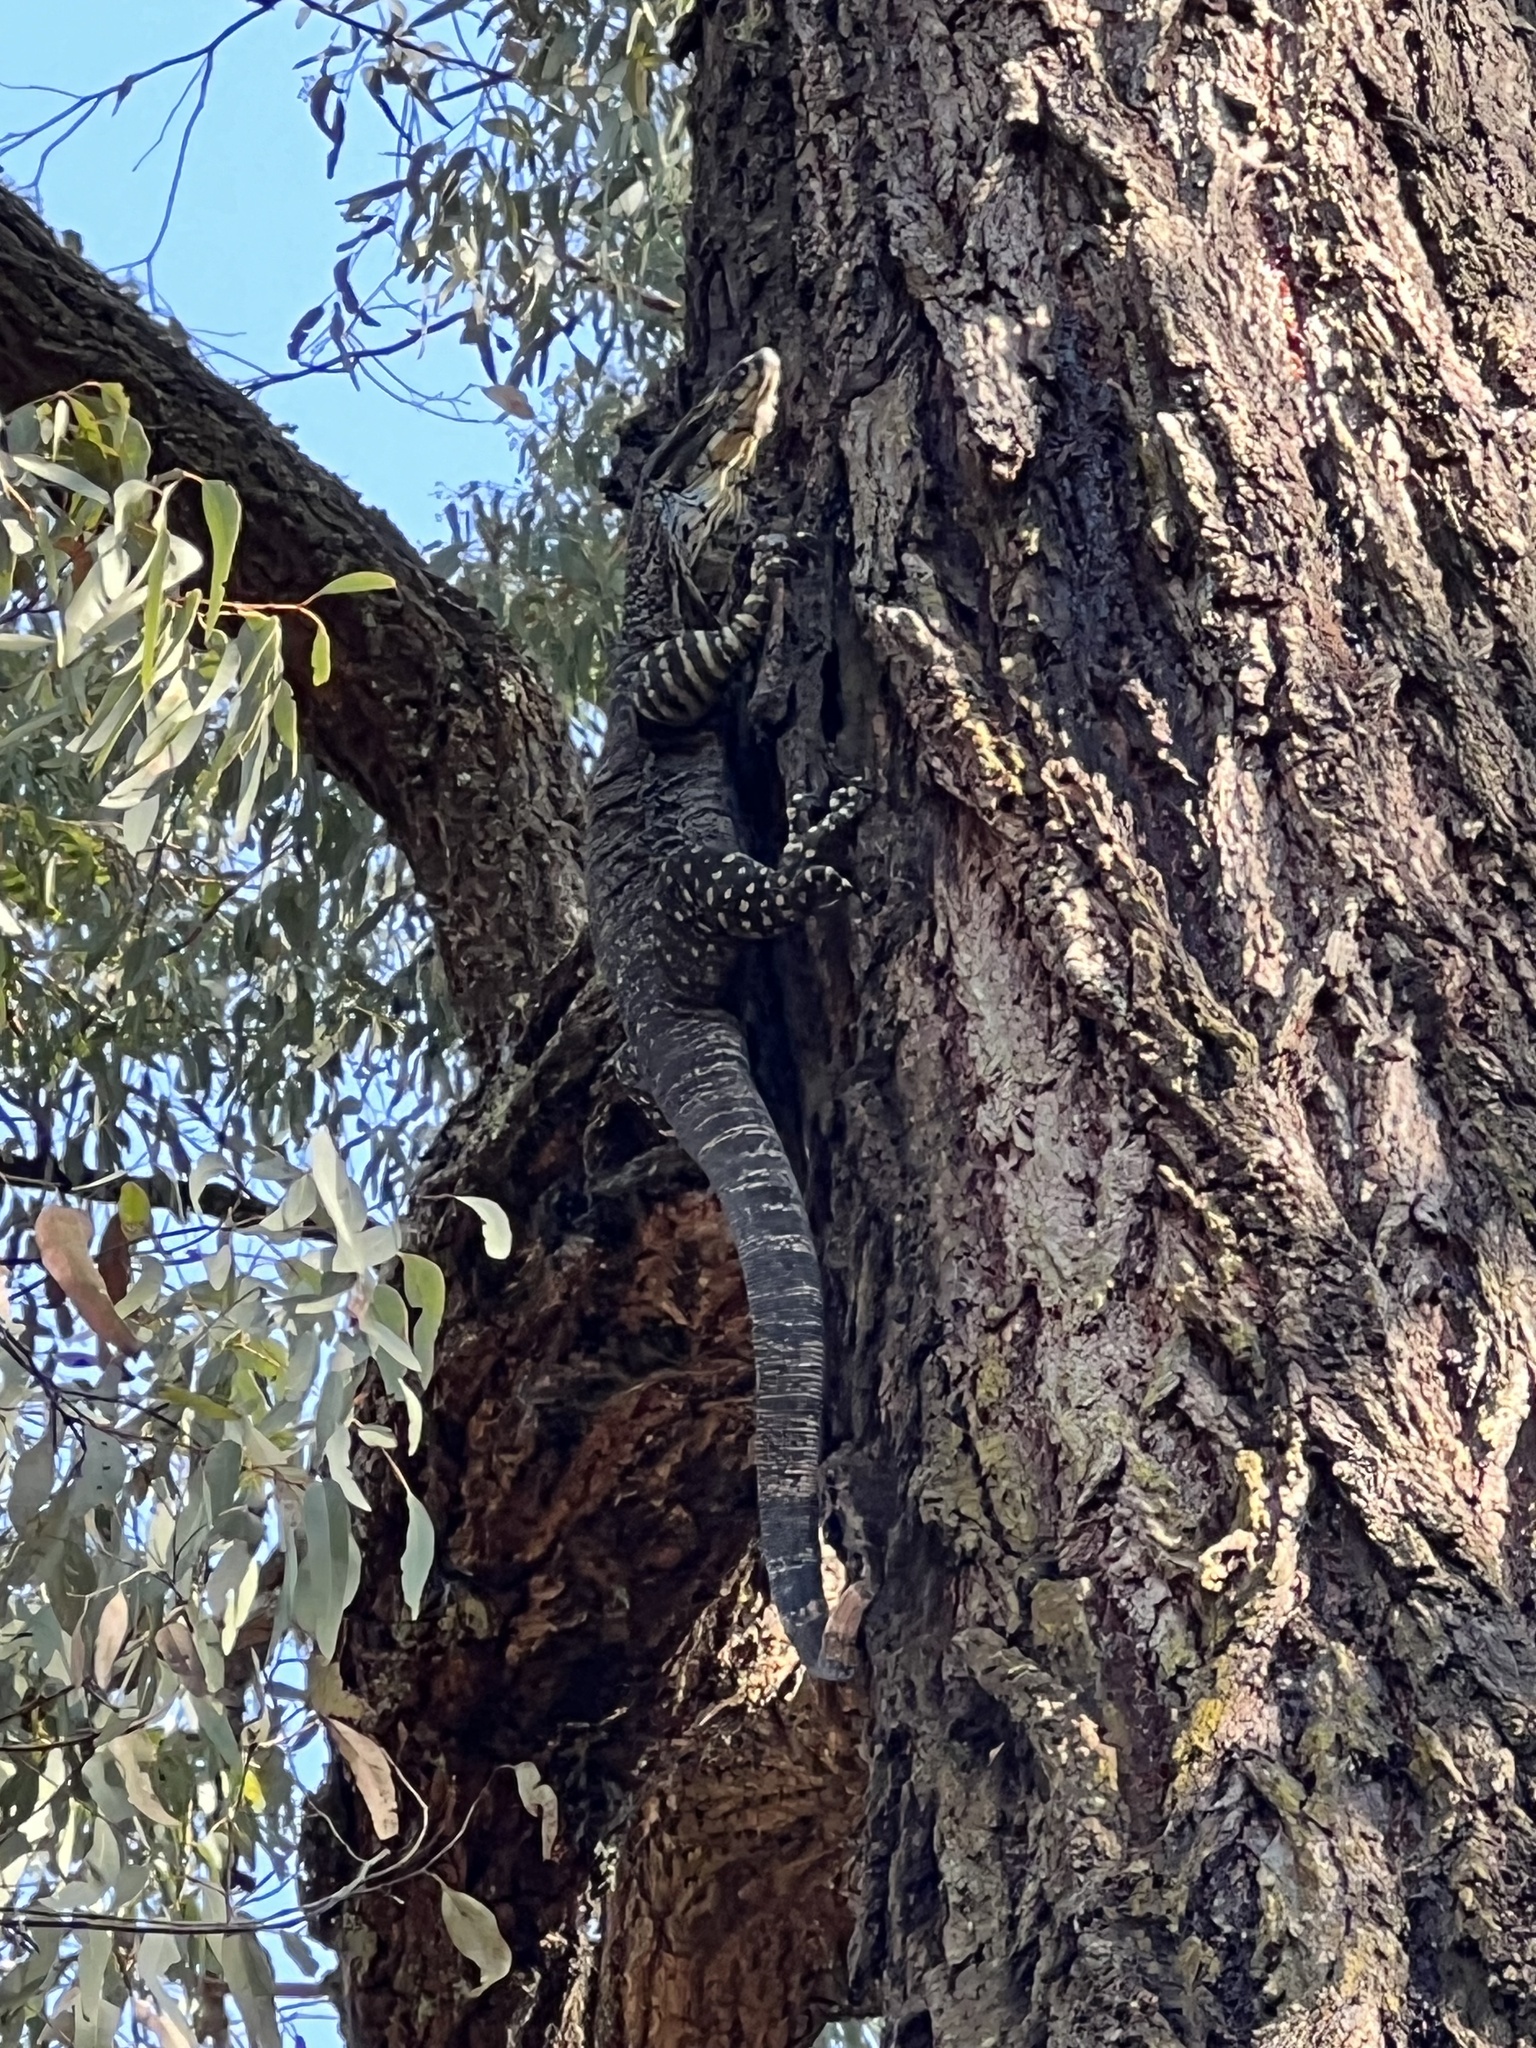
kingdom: Animalia
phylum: Chordata
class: Squamata
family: Varanidae
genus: Varanus
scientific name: Varanus varius
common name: Lace monitor
